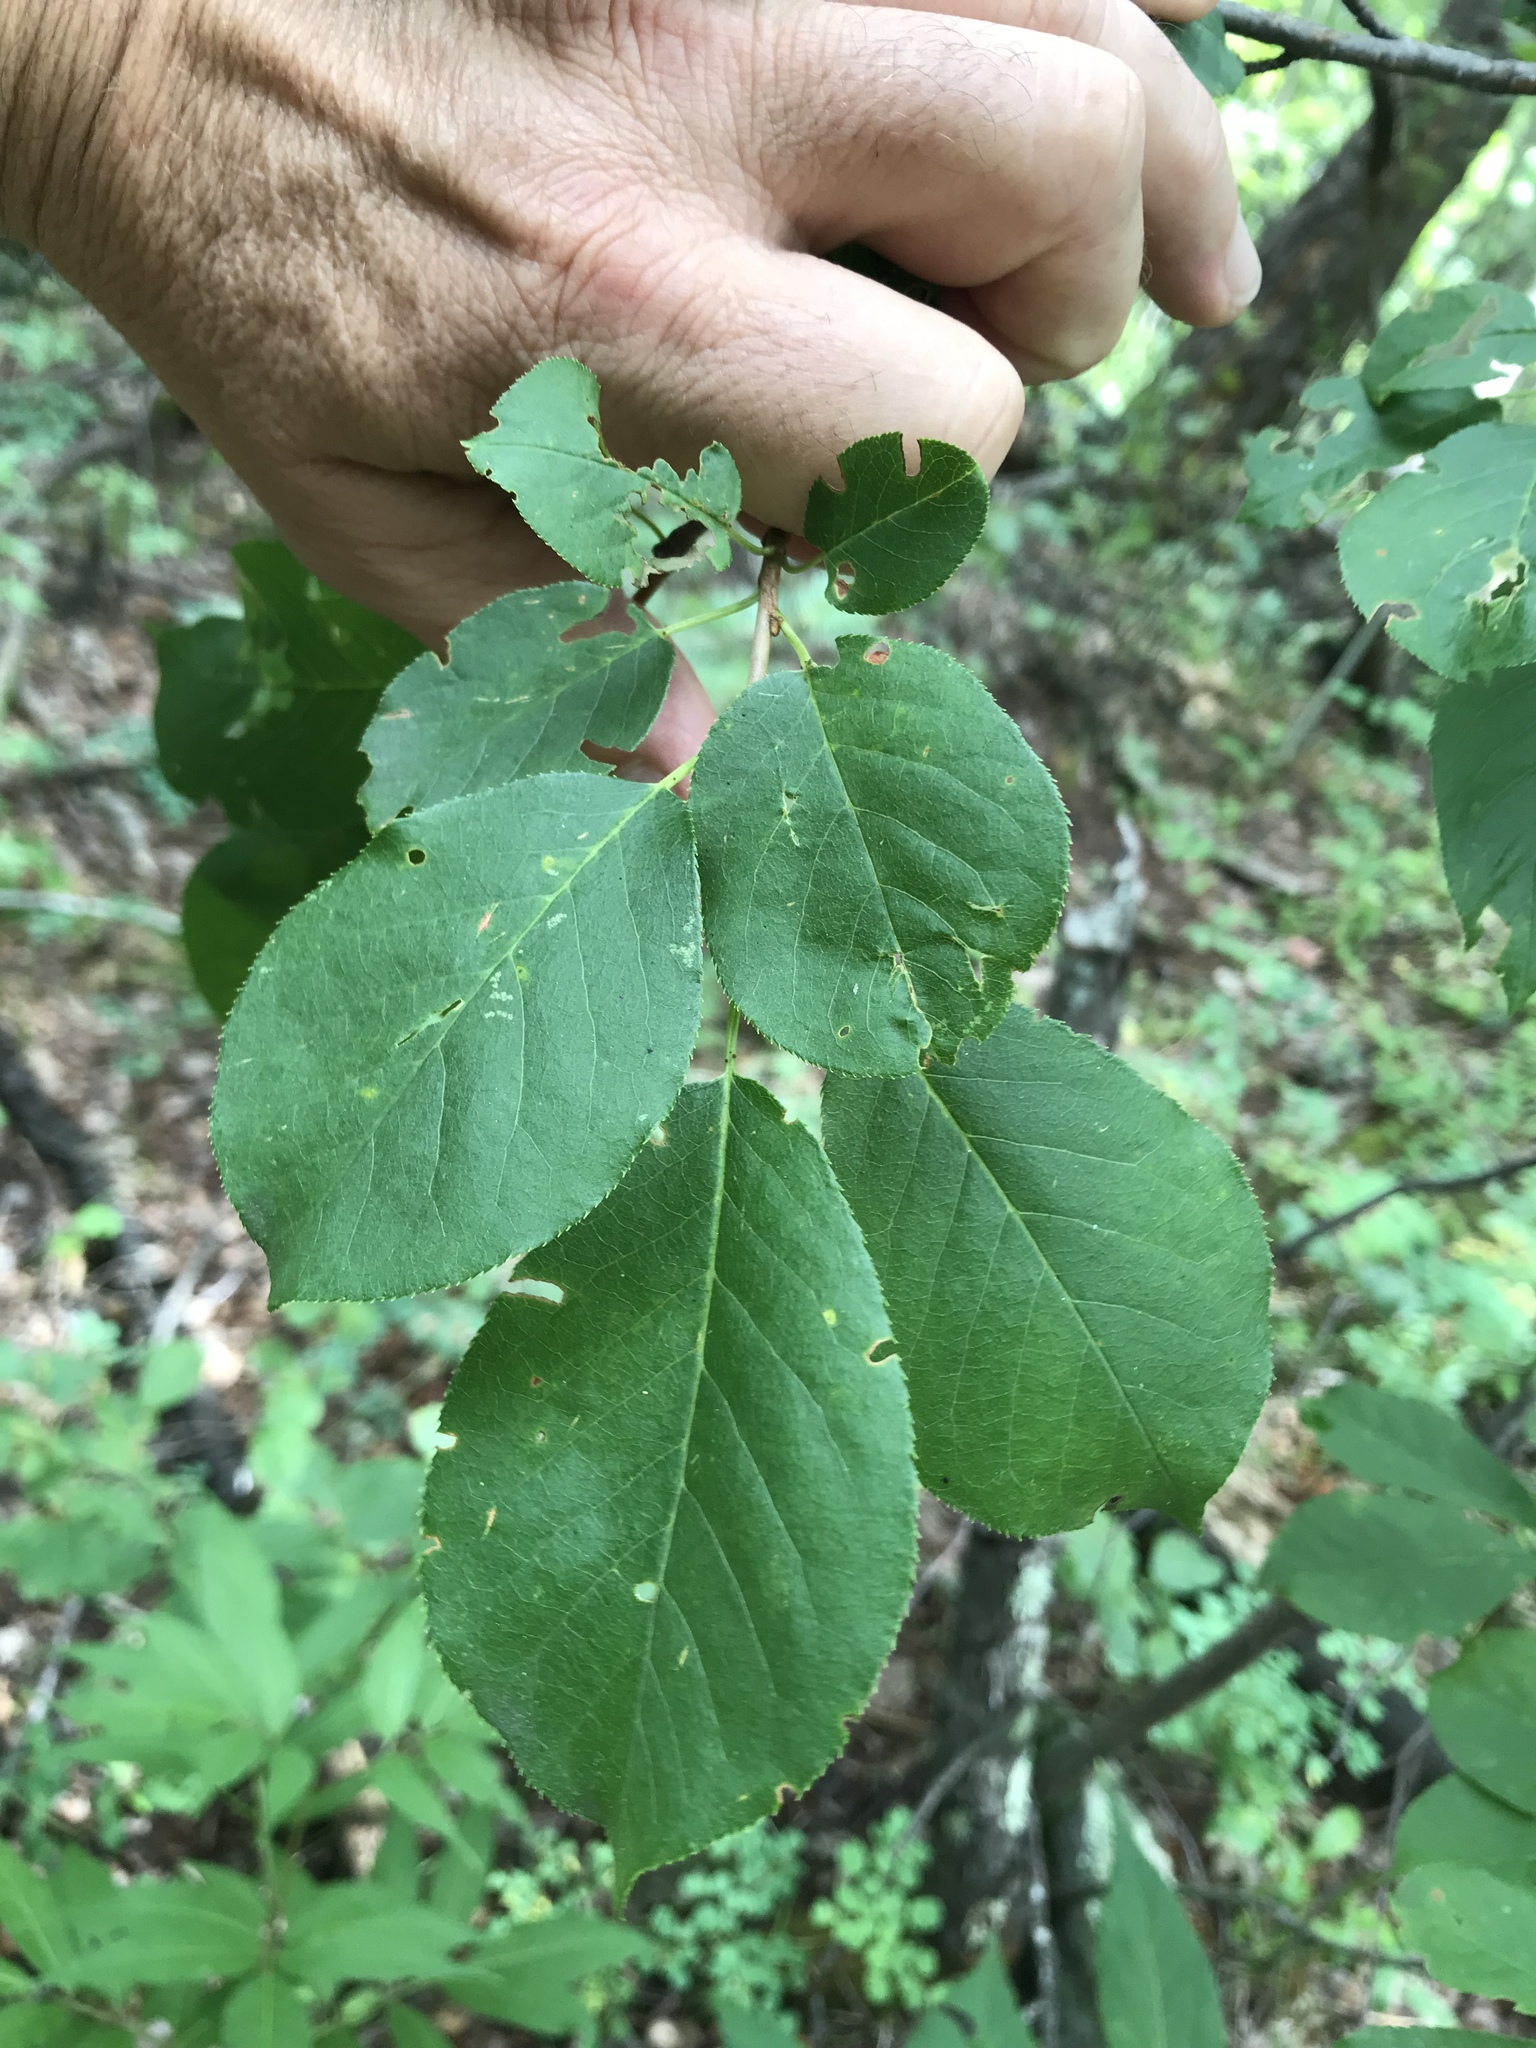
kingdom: Plantae
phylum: Tracheophyta
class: Magnoliopsida
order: Rosales
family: Rosaceae
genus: Prunus
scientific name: Prunus virginiana
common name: Chokecherry
